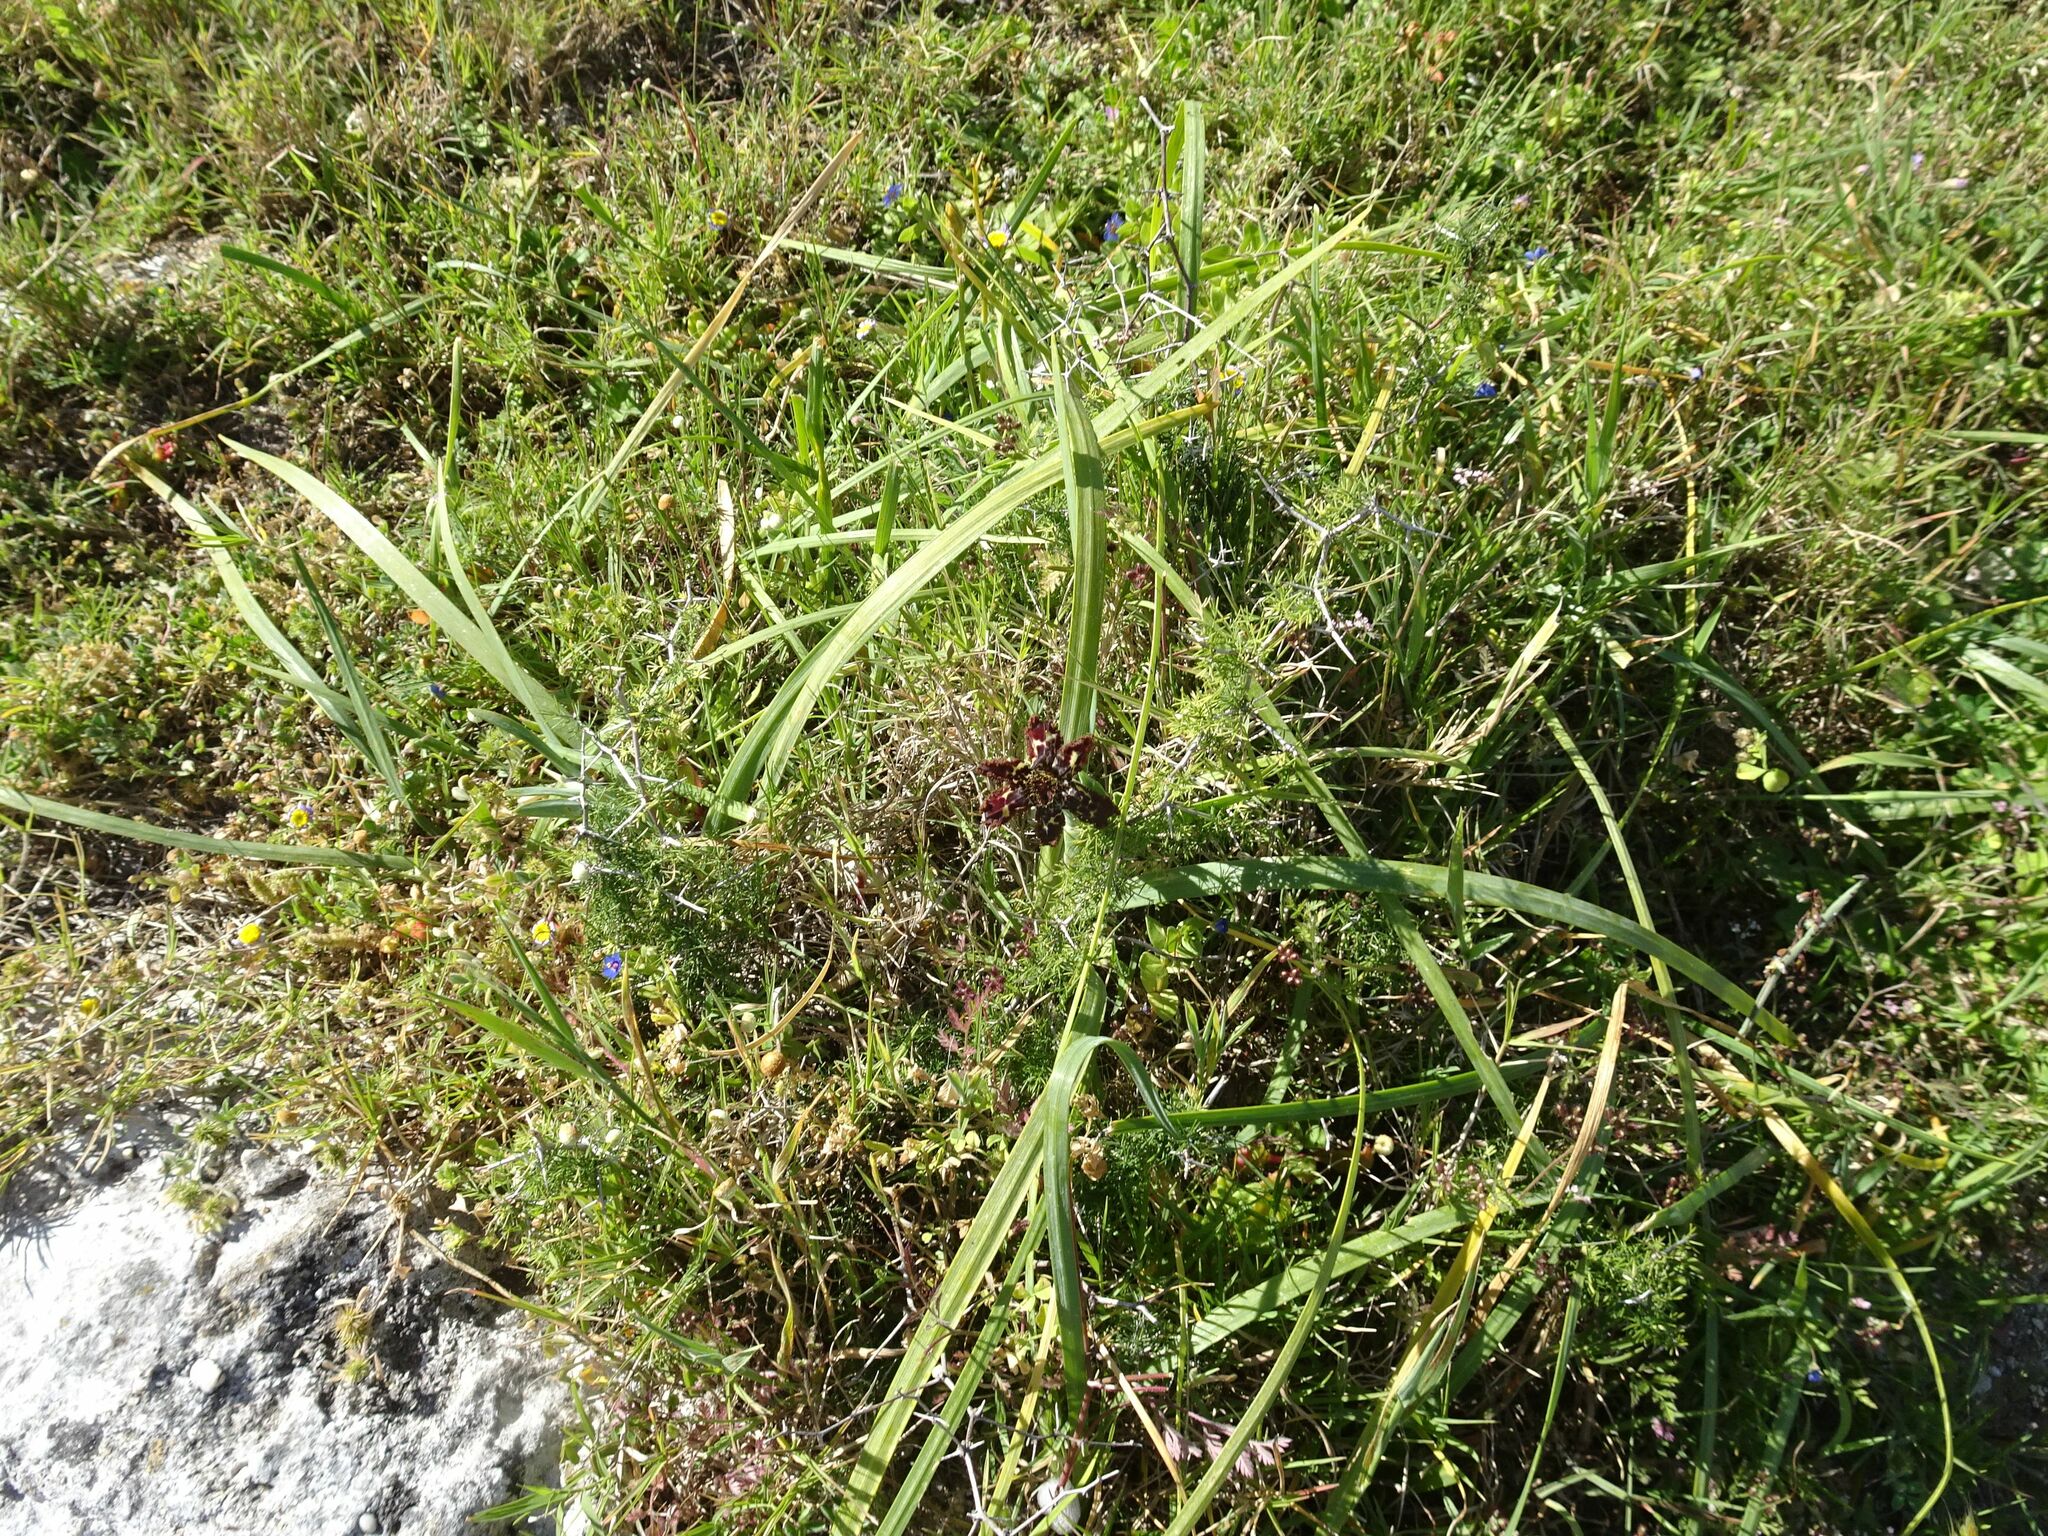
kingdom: Plantae
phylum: Tracheophyta
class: Liliopsida
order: Asparagales
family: Iridaceae
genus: Ferraria
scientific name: Ferraria crispa
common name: Black-flag
